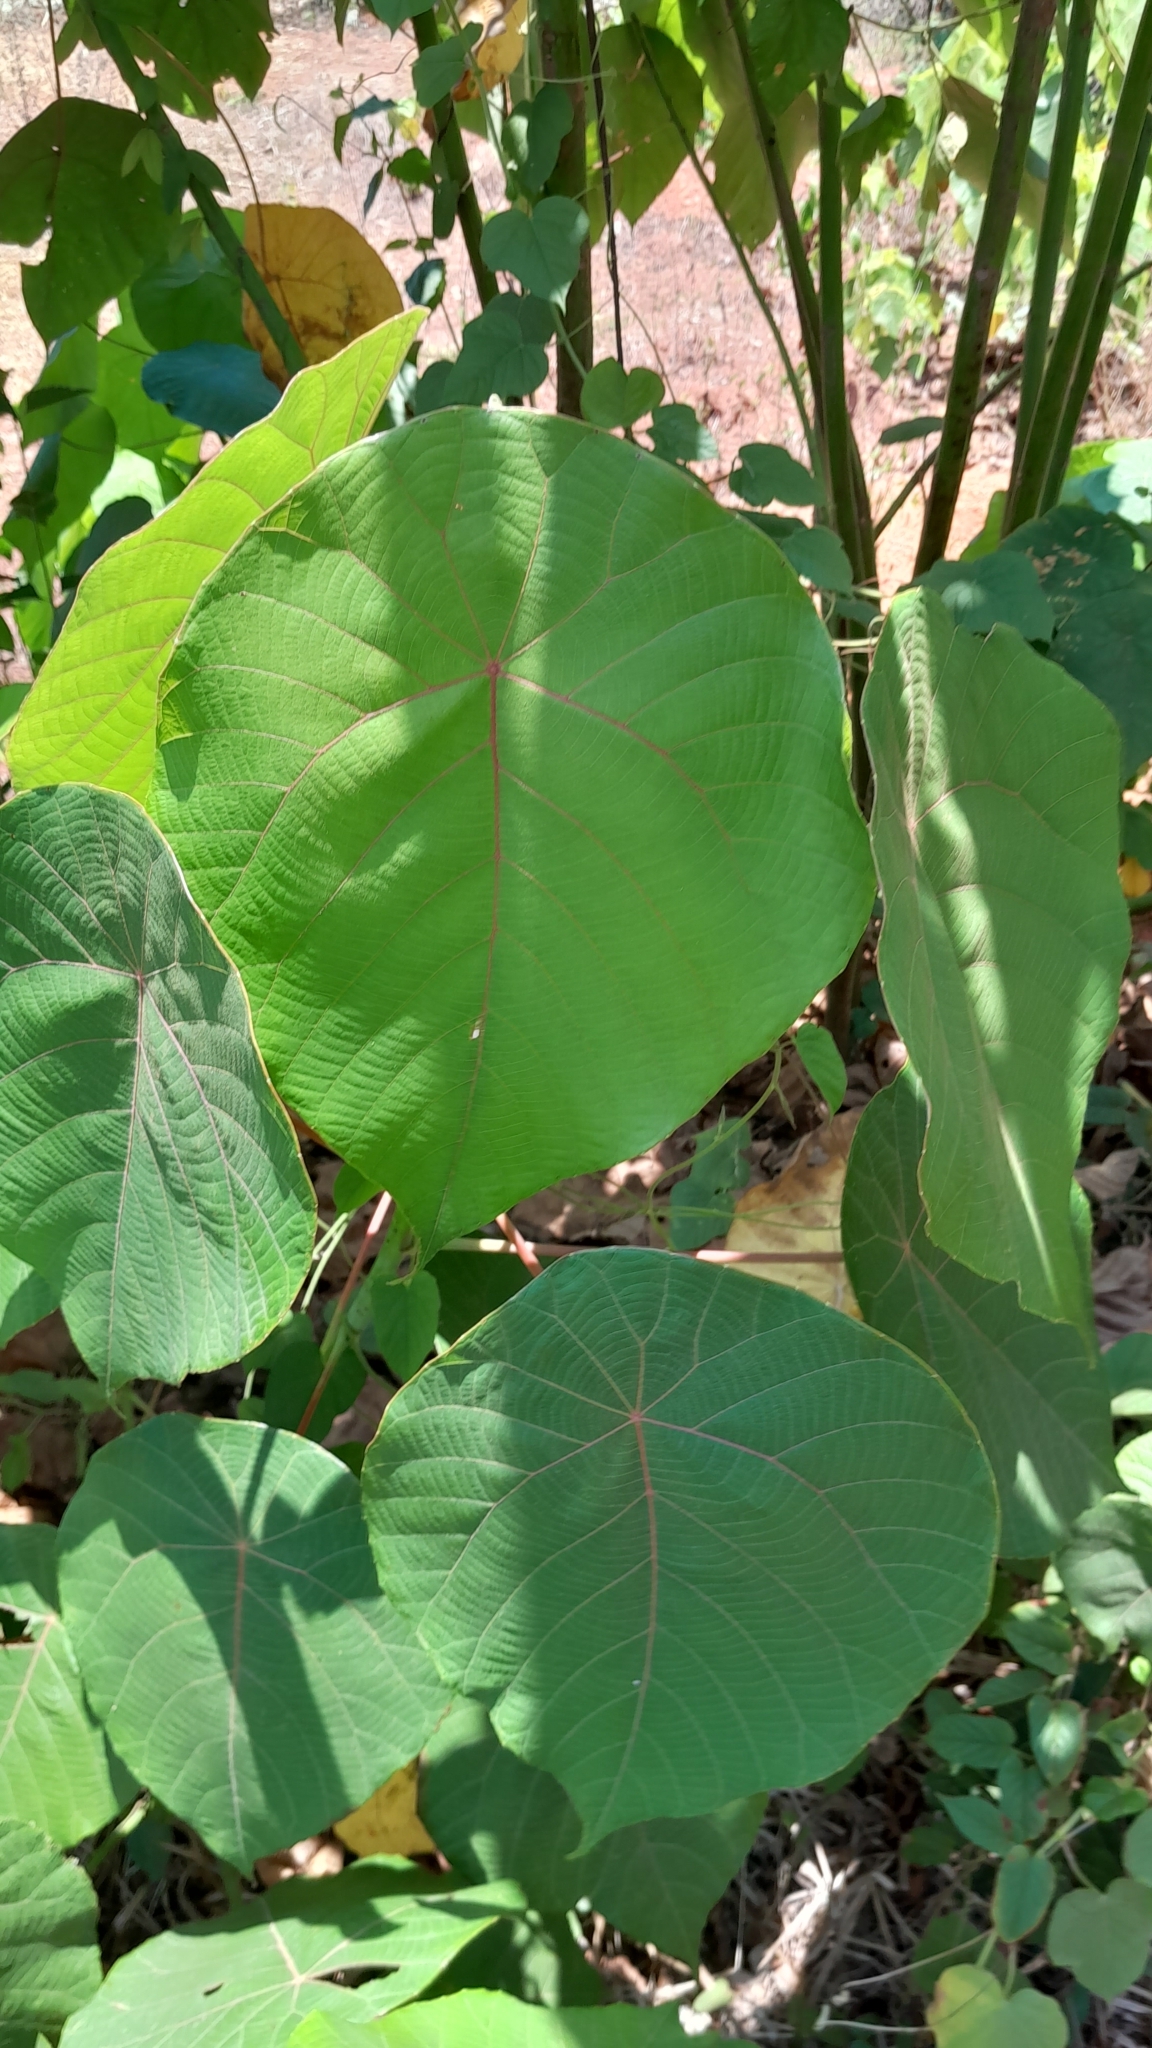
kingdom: Plantae
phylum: Tracheophyta
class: Magnoliopsida
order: Malpighiales
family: Euphorbiaceae
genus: Macaranga
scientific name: Macaranga peltata
